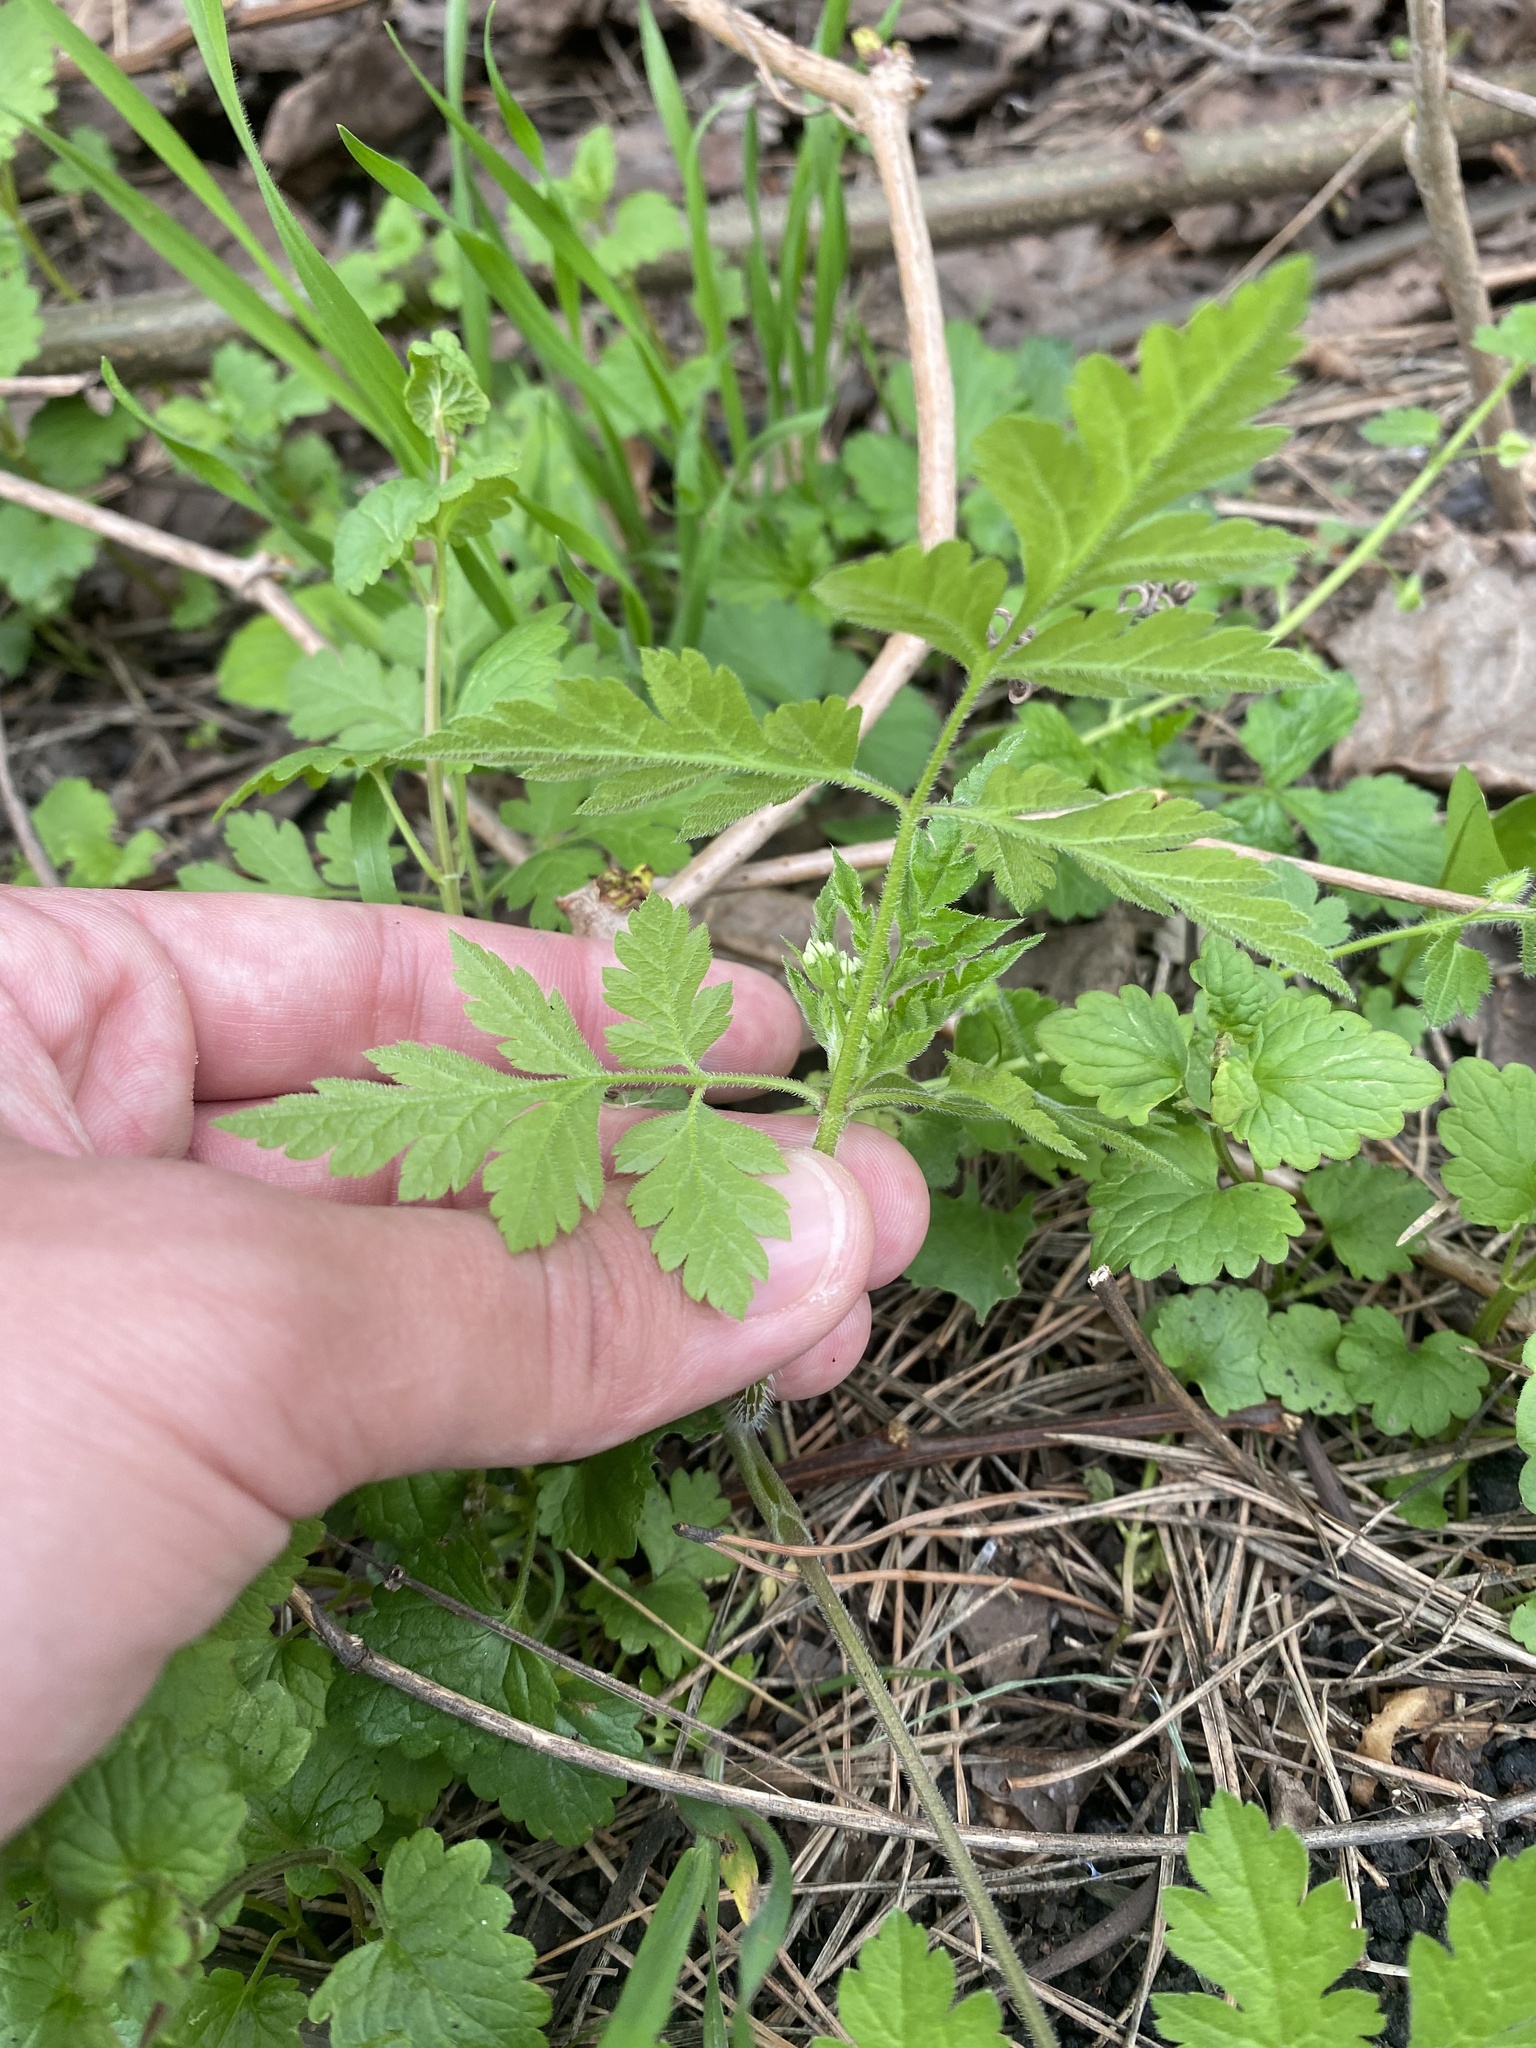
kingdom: Plantae
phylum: Tracheophyta
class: Magnoliopsida
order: Apiales
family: Apiaceae
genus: Chaerophyllum
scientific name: Chaerophyllum temulum
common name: Rough chervil
